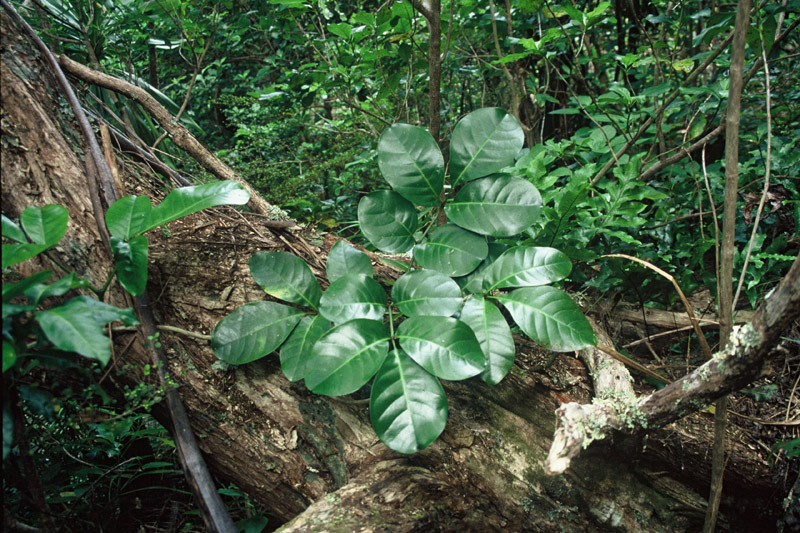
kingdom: Plantae
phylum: Tracheophyta
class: Magnoliopsida
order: Lamiales
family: Bignoniaceae
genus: Tecomanthe
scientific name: Tecomanthe speciosa
